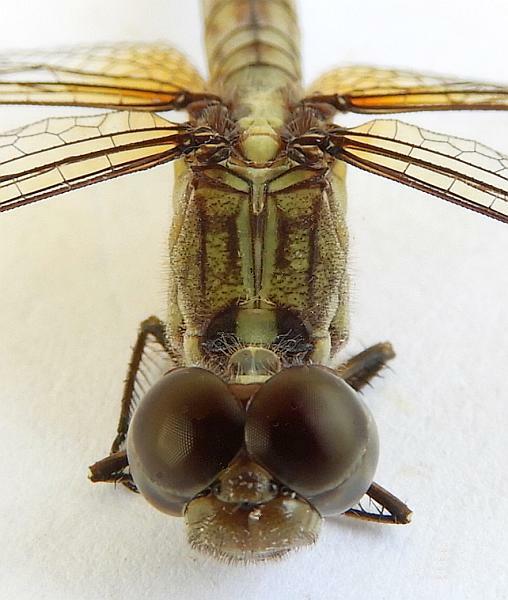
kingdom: Animalia
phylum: Arthropoda
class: Insecta
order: Odonata
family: Libellulidae
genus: Erythrodiplax
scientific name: Erythrodiplax umbrata
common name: Band-winged dragonlet
